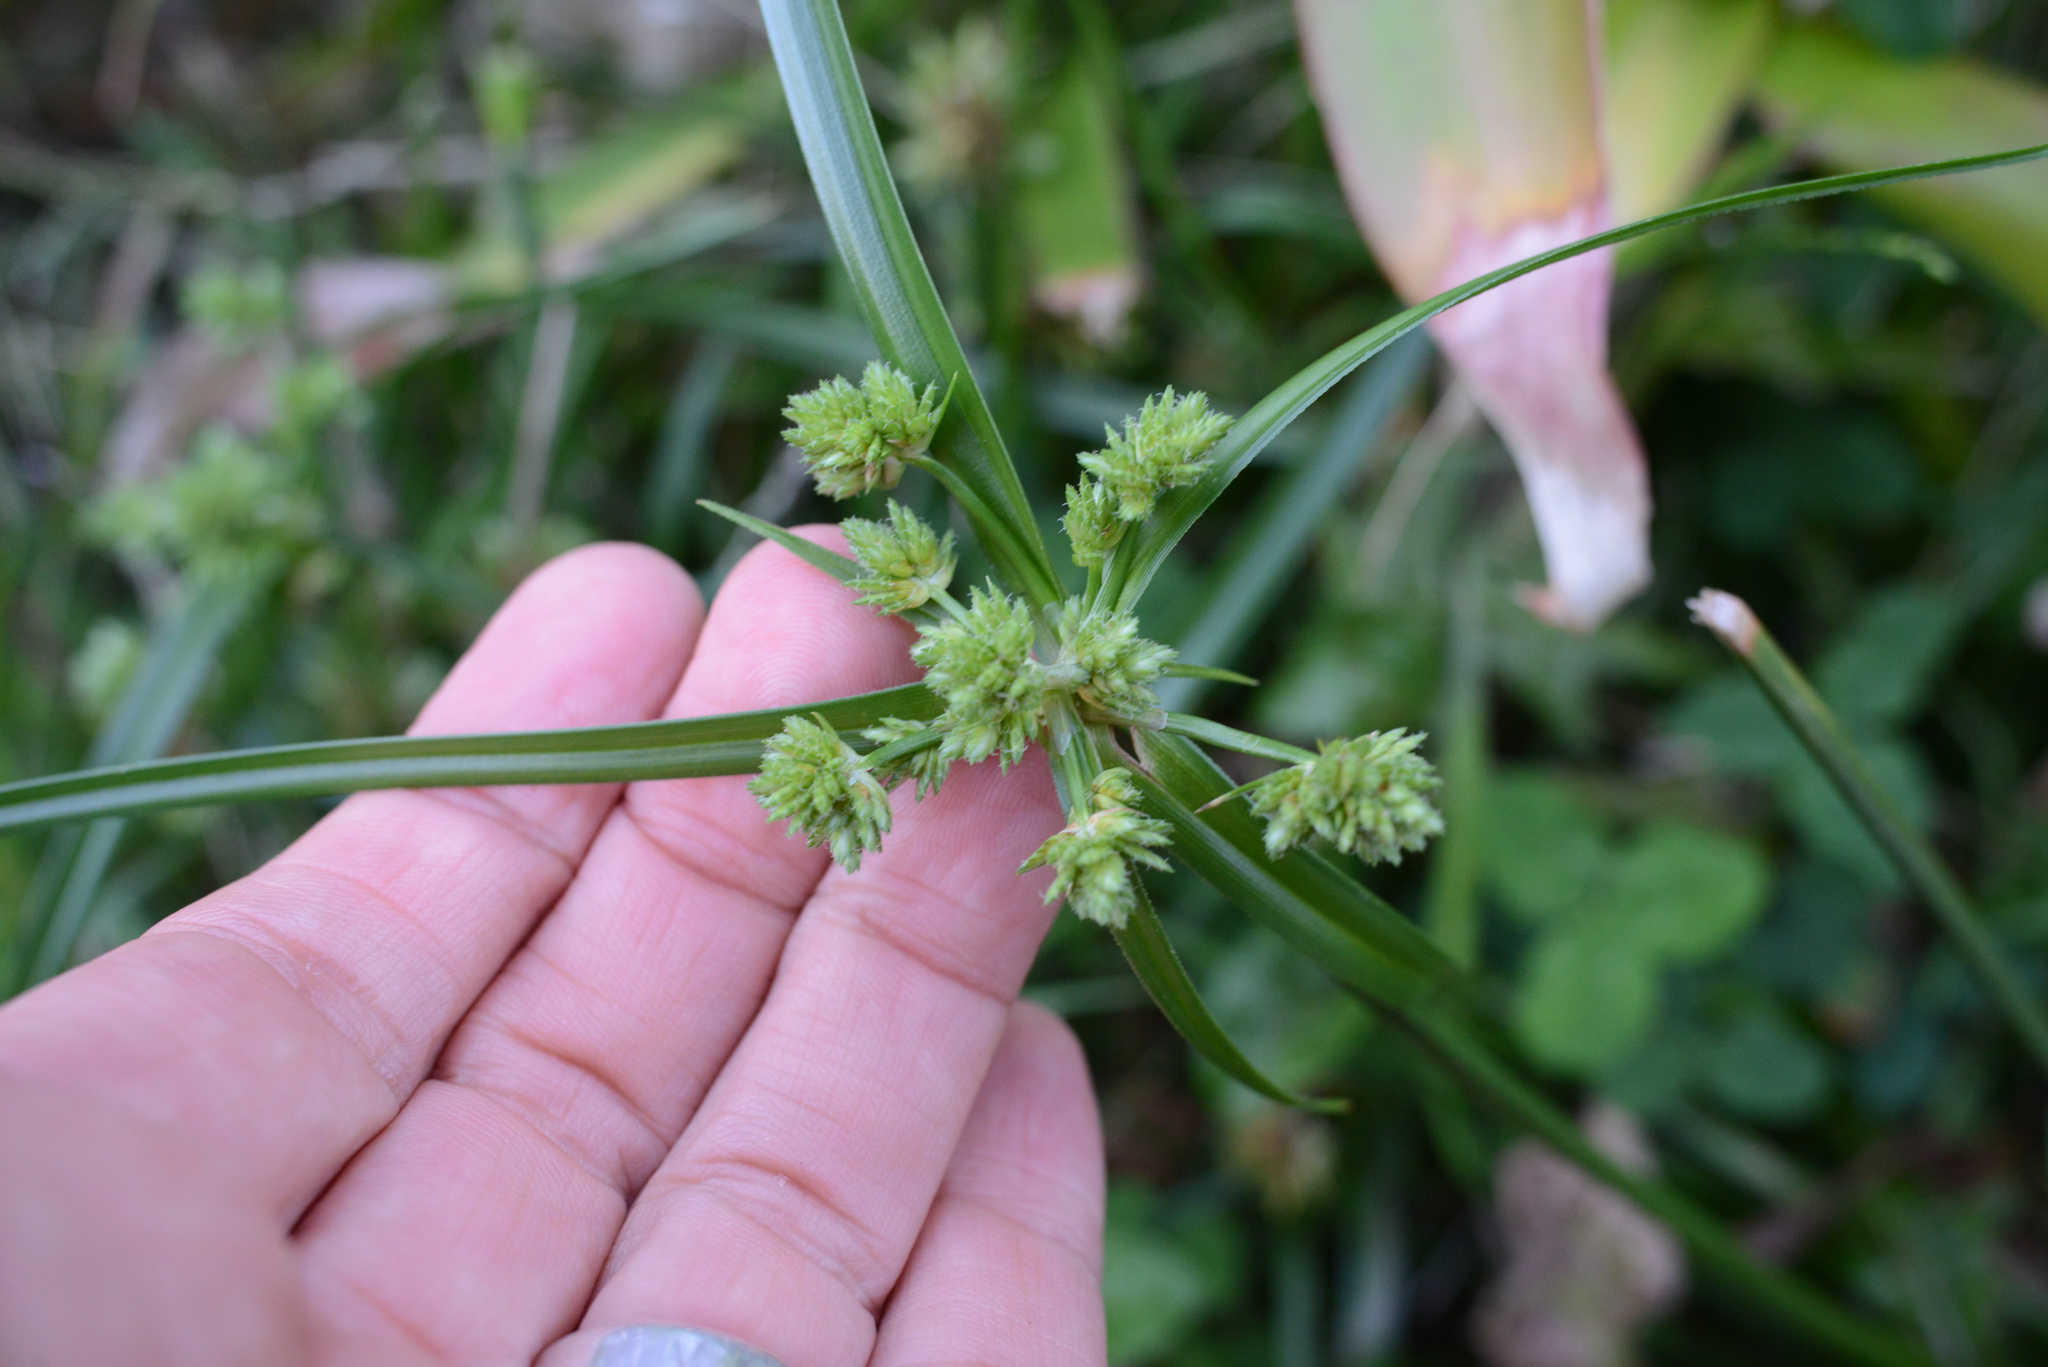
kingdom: Plantae
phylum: Tracheophyta
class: Liliopsida
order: Poales
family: Cyperaceae
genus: Cyperus
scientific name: Cyperus eragrostis
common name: Tall flatsedge
